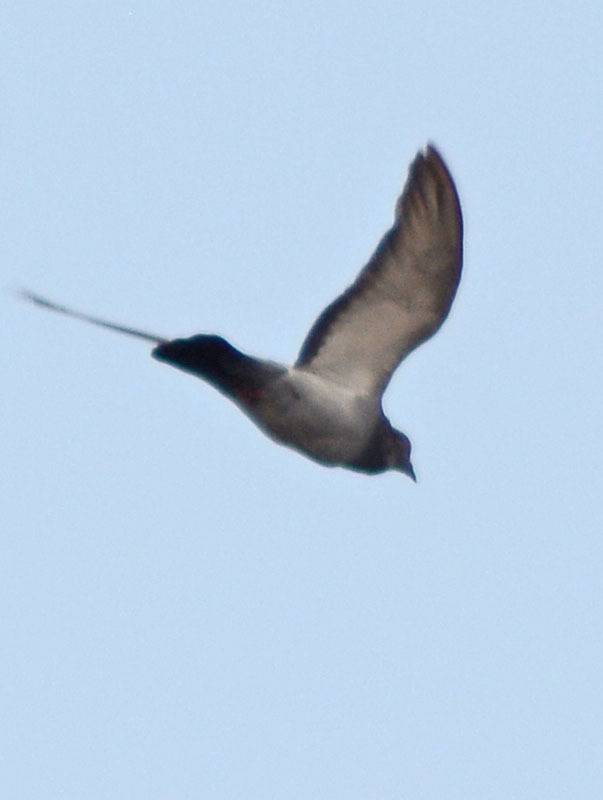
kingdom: Animalia
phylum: Chordata
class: Aves
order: Columbiformes
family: Columbidae
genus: Columba
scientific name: Columba livia
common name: Rock pigeon
